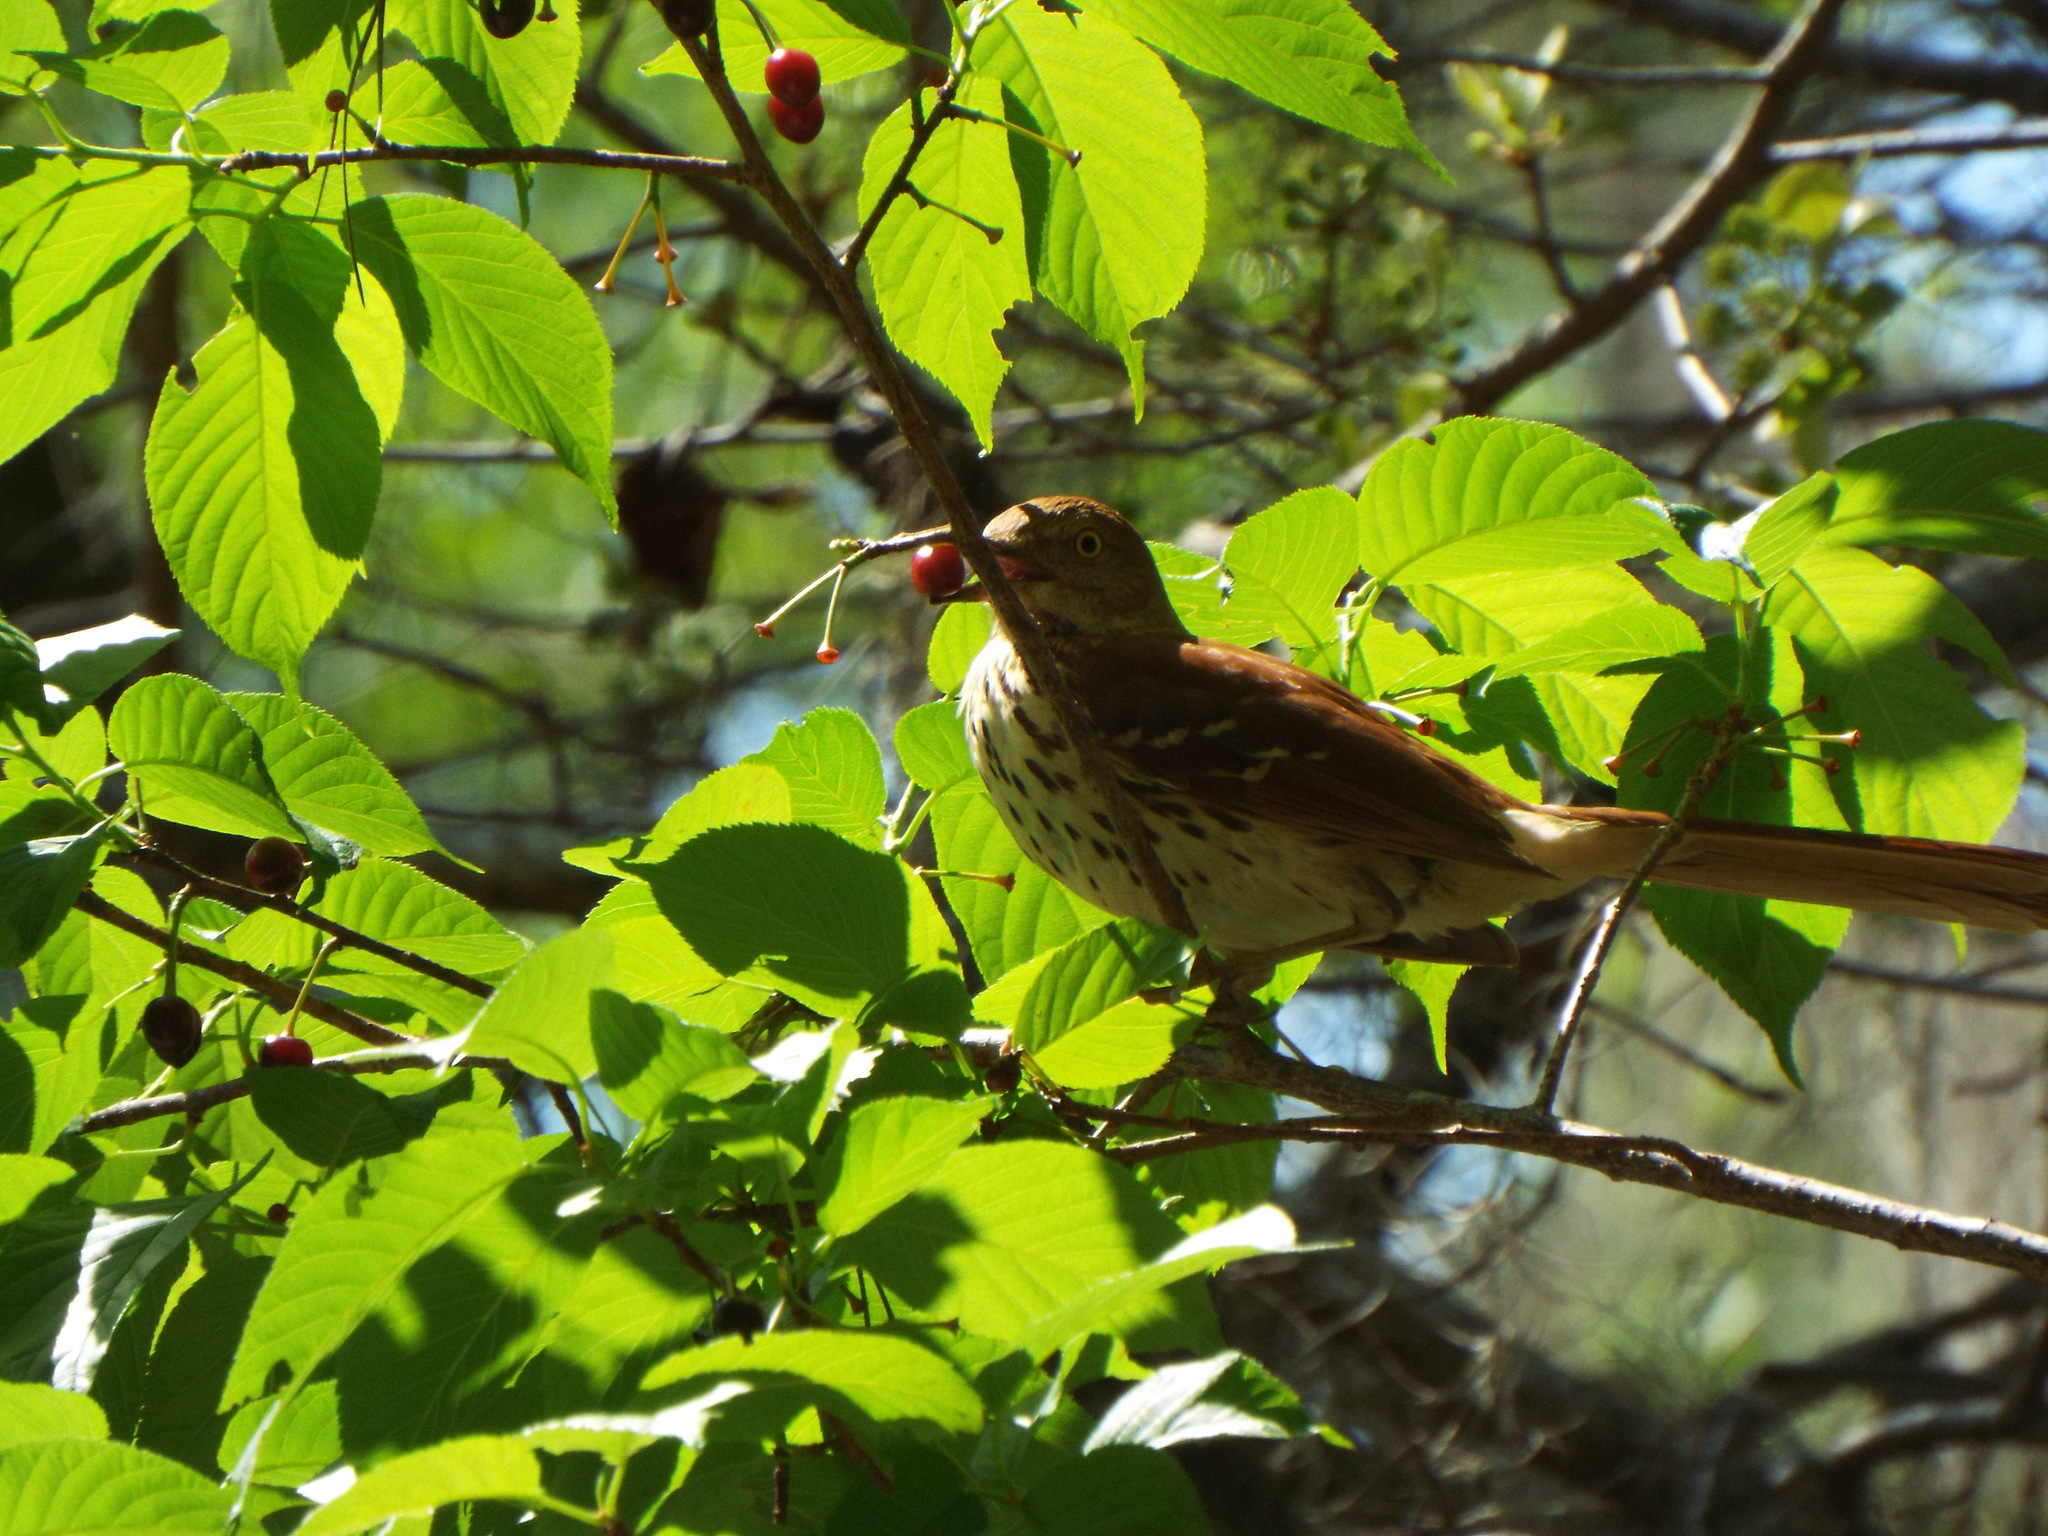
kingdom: Animalia
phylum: Chordata
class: Aves
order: Passeriformes
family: Mimidae
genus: Toxostoma
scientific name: Toxostoma rufum
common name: Brown thrasher
